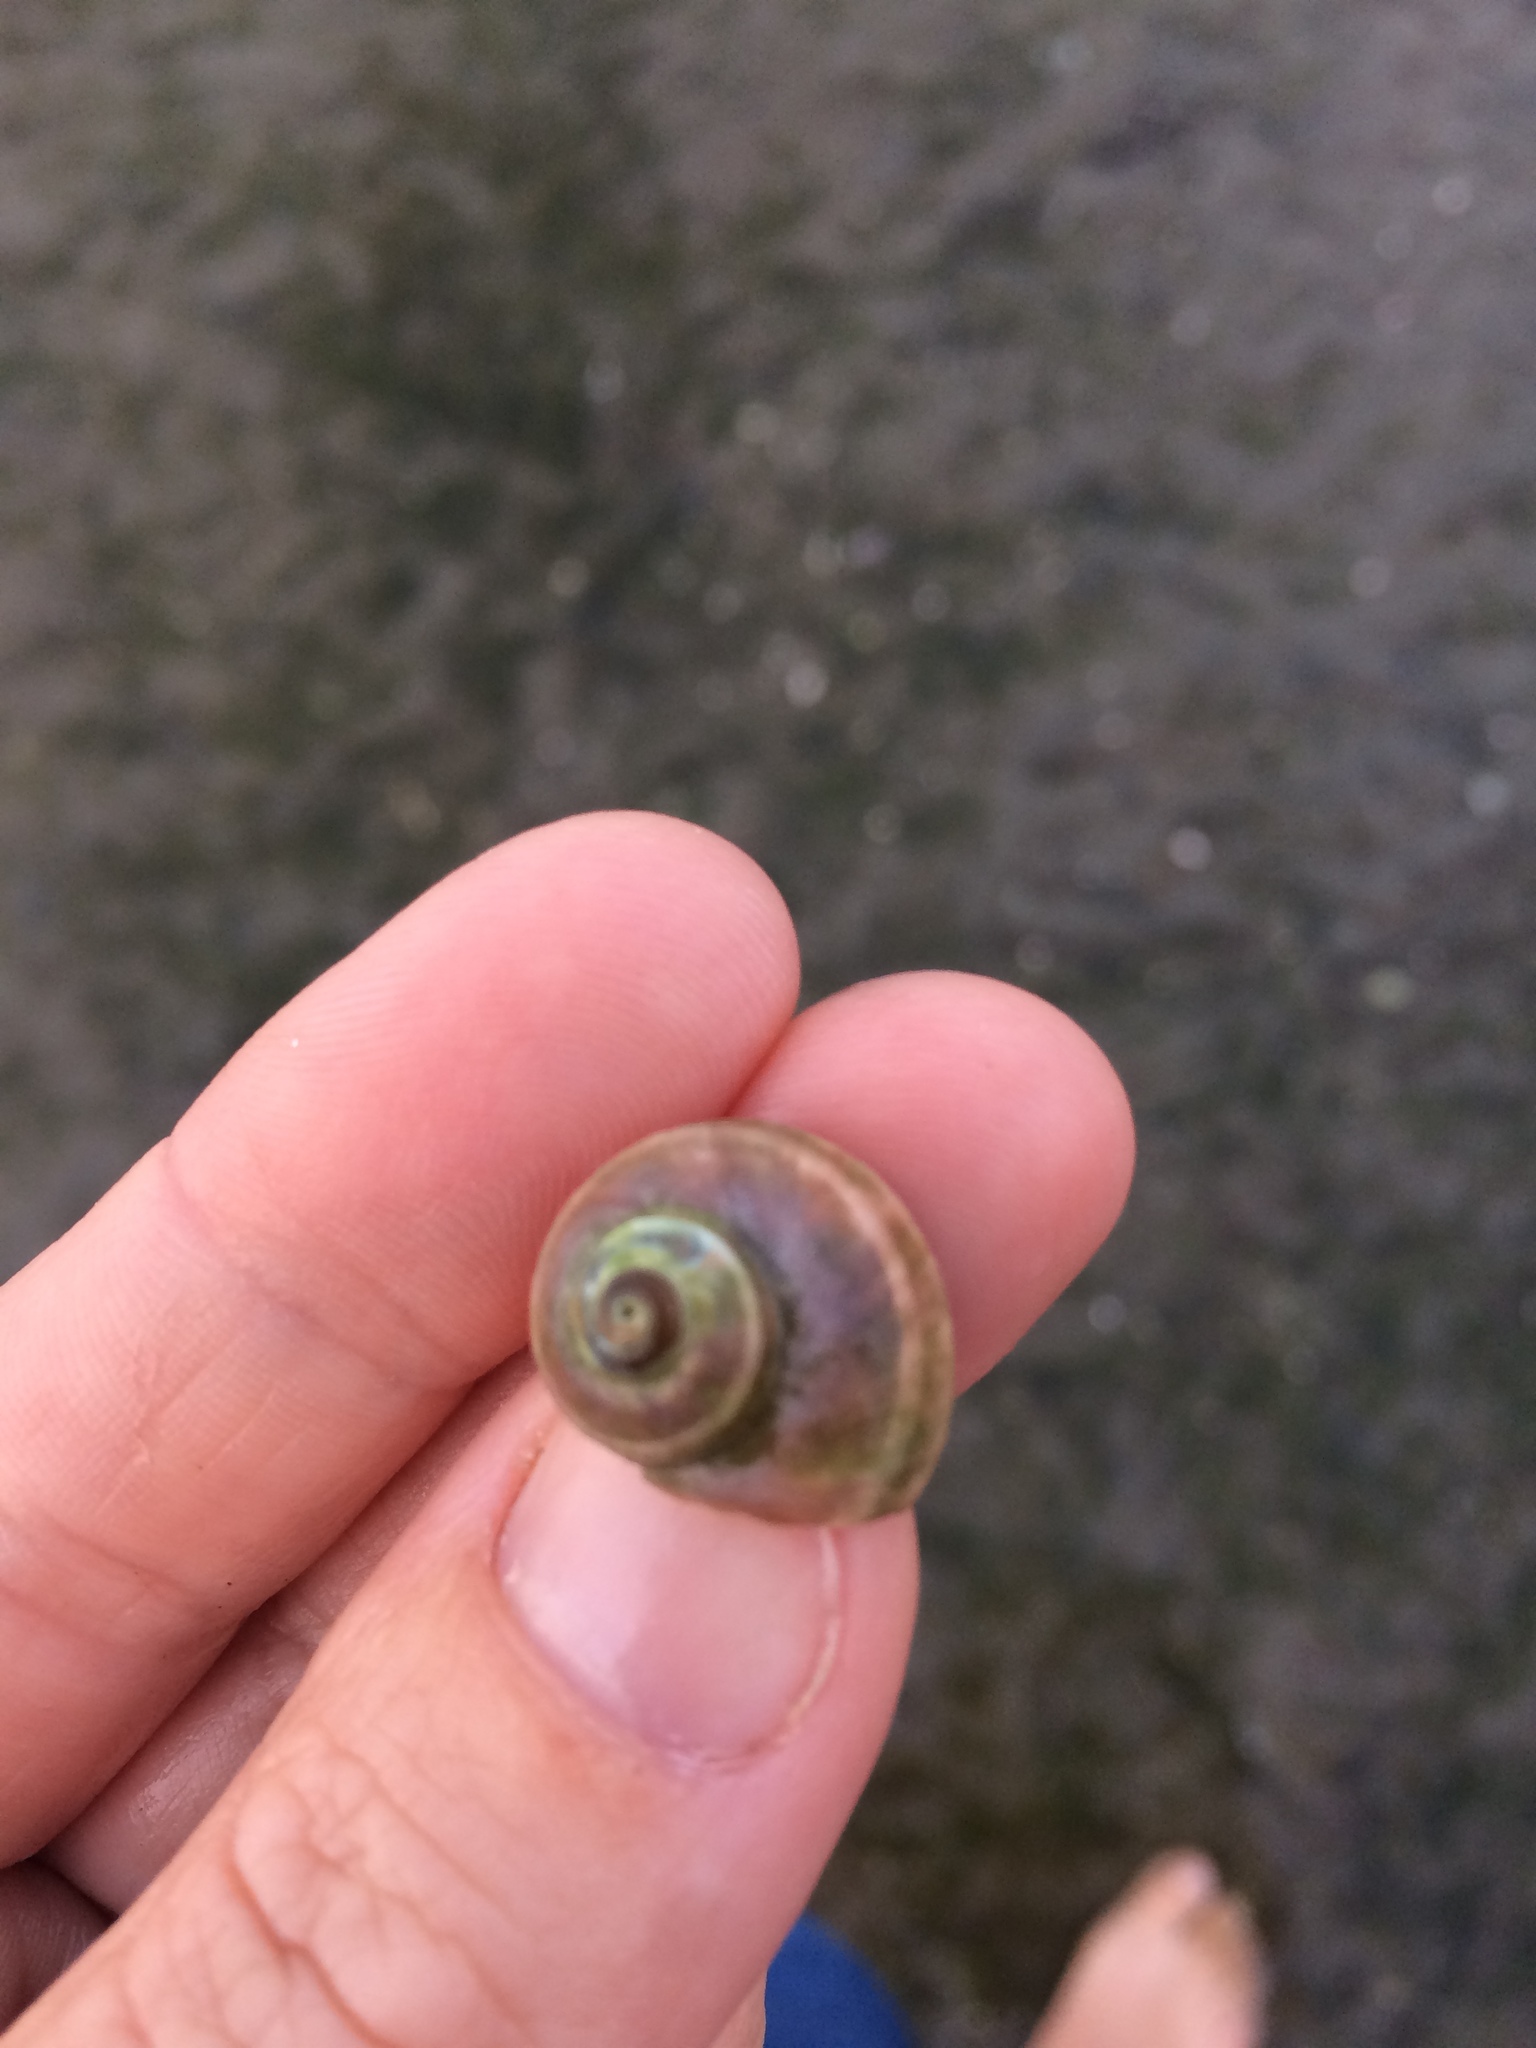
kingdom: Animalia
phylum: Mollusca
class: Gastropoda
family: Amphibolidae
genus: Amphibola
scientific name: Amphibola crenata
